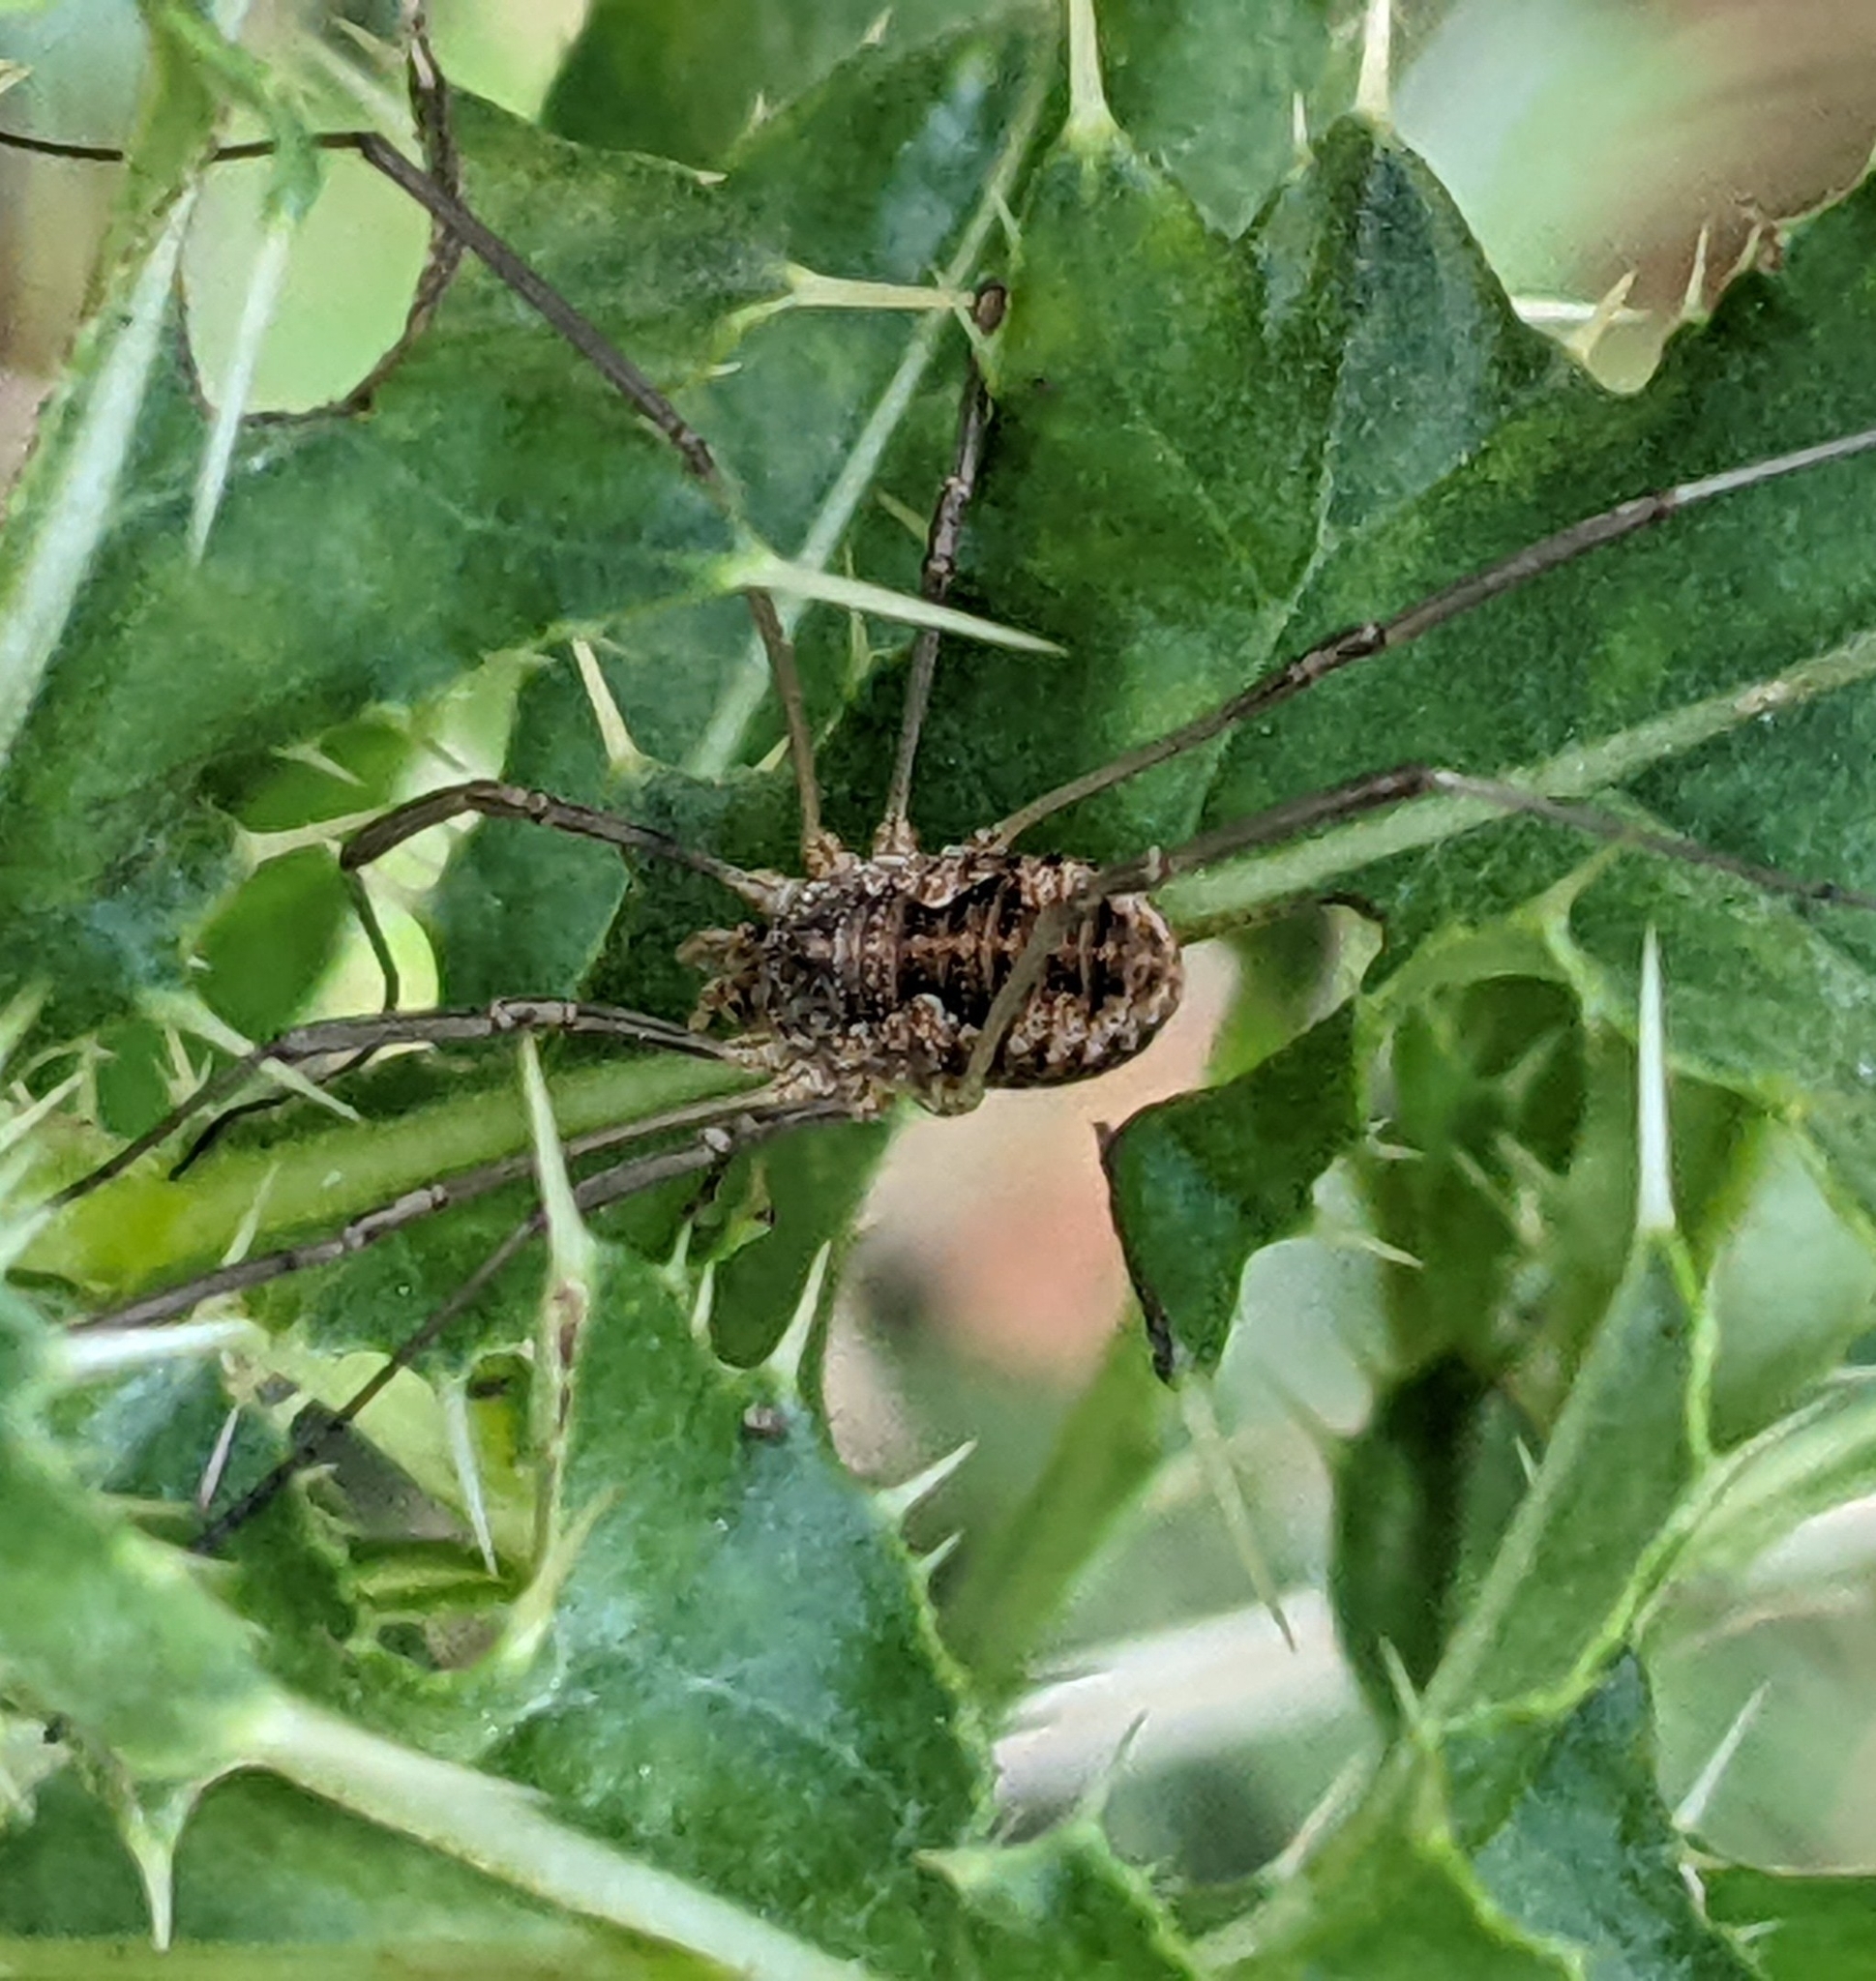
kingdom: Animalia
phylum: Arthropoda
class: Arachnida
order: Opiliones
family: Phalangiidae
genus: Phalangium
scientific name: Phalangium opilio
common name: Daddy longleg
